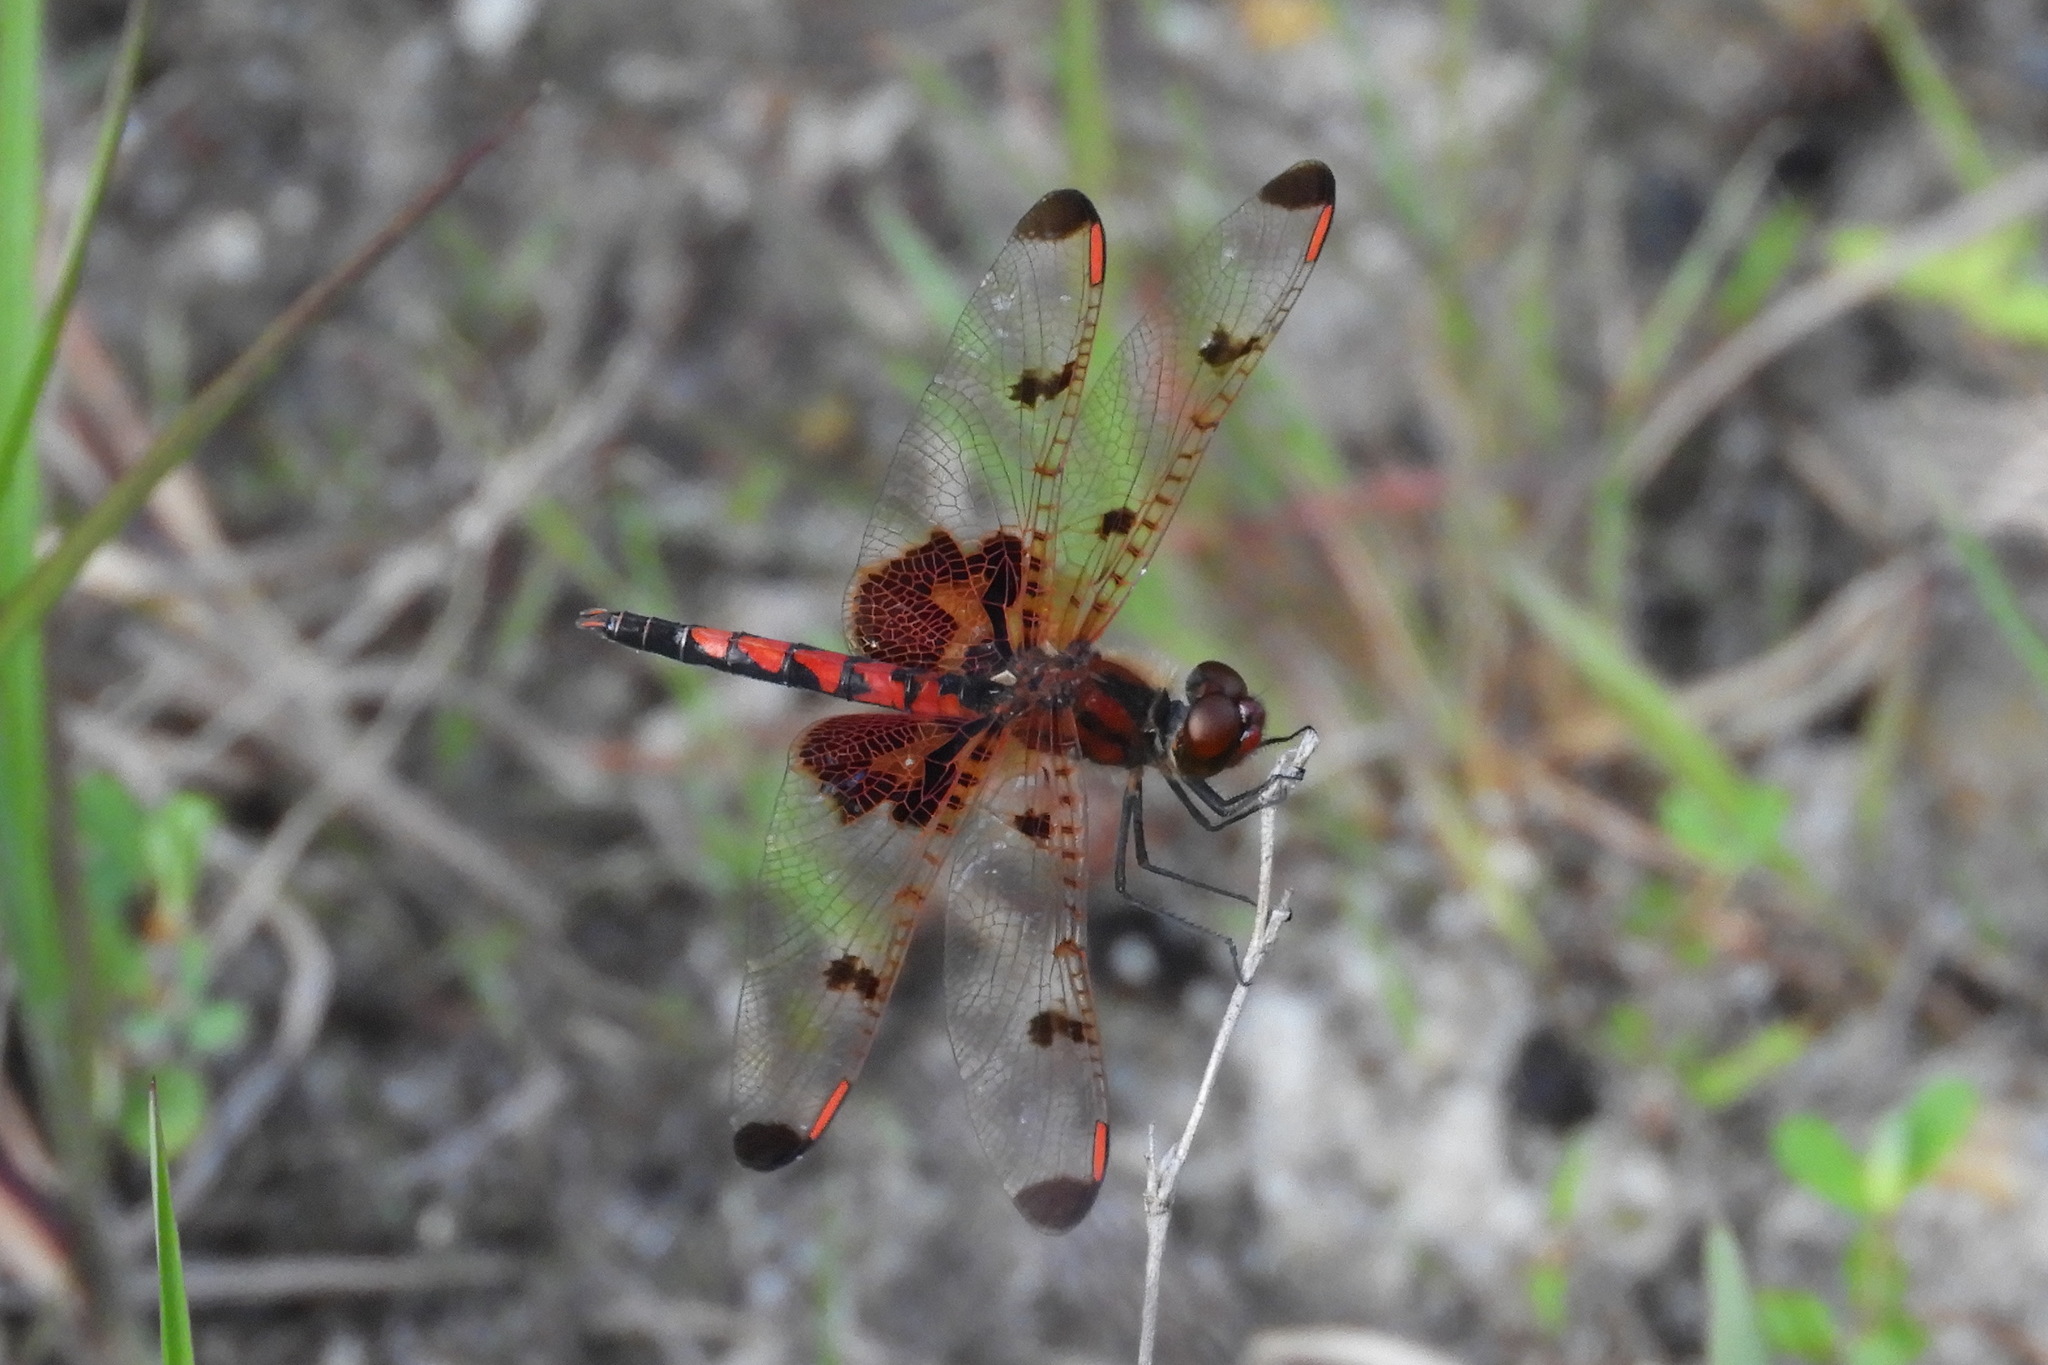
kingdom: Animalia
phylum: Arthropoda
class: Insecta
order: Odonata
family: Libellulidae
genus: Celithemis
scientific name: Celithemis elisa
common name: Calico pennant
